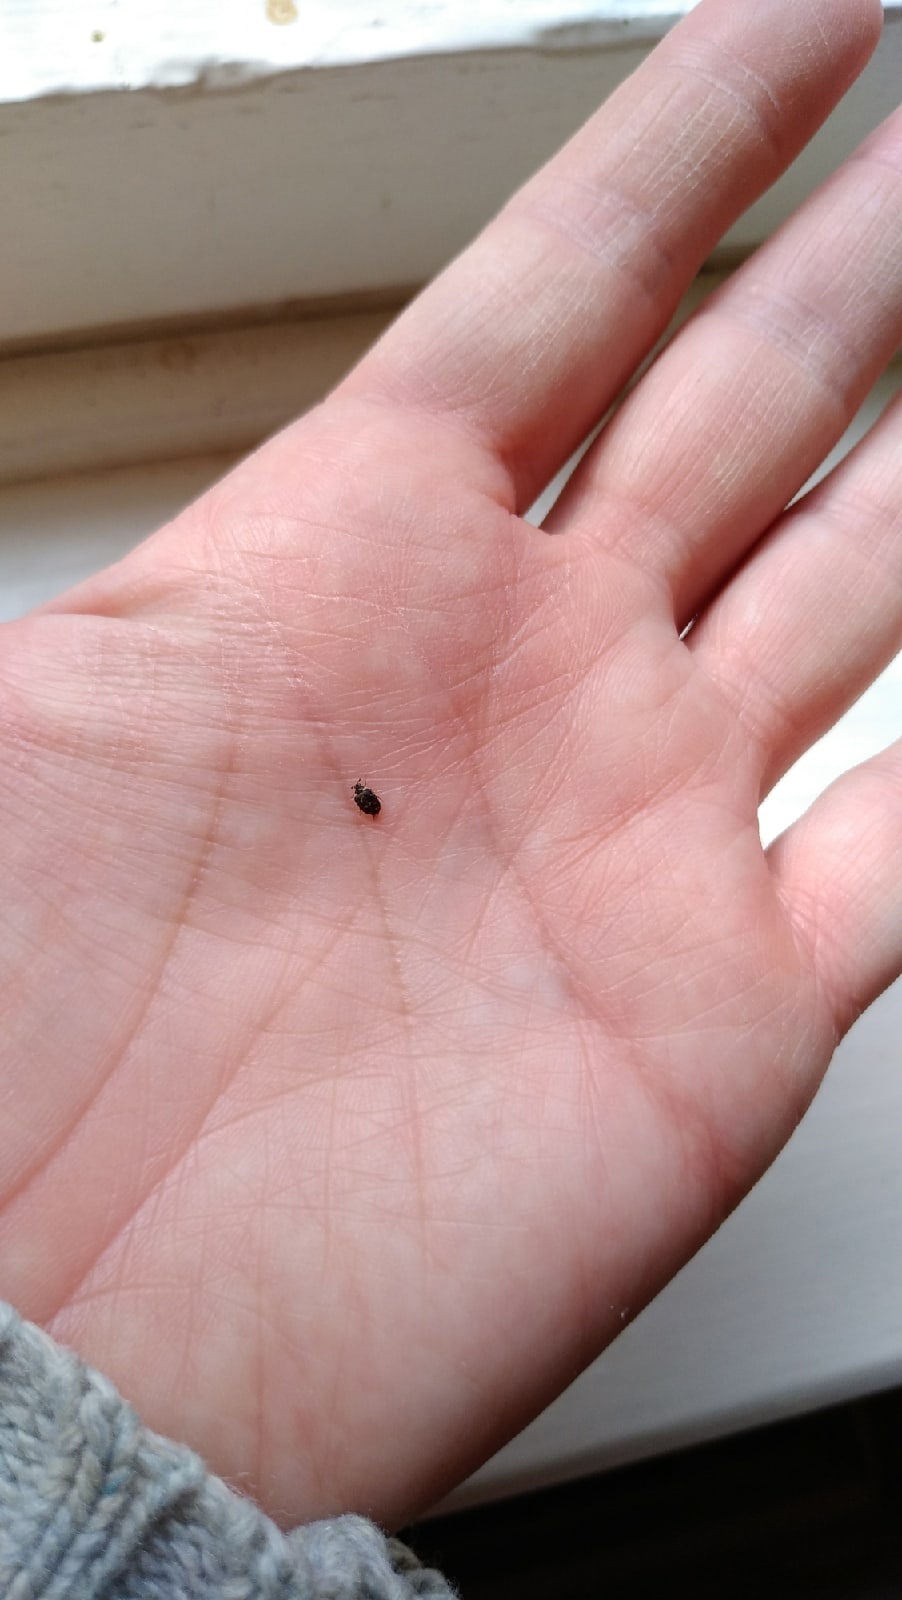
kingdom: Animalia
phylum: Arthropoda
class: Insecta
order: Coleoptera
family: Dermestidae
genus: Anthrenus
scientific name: Anthrenus museorum
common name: Museum beetle
